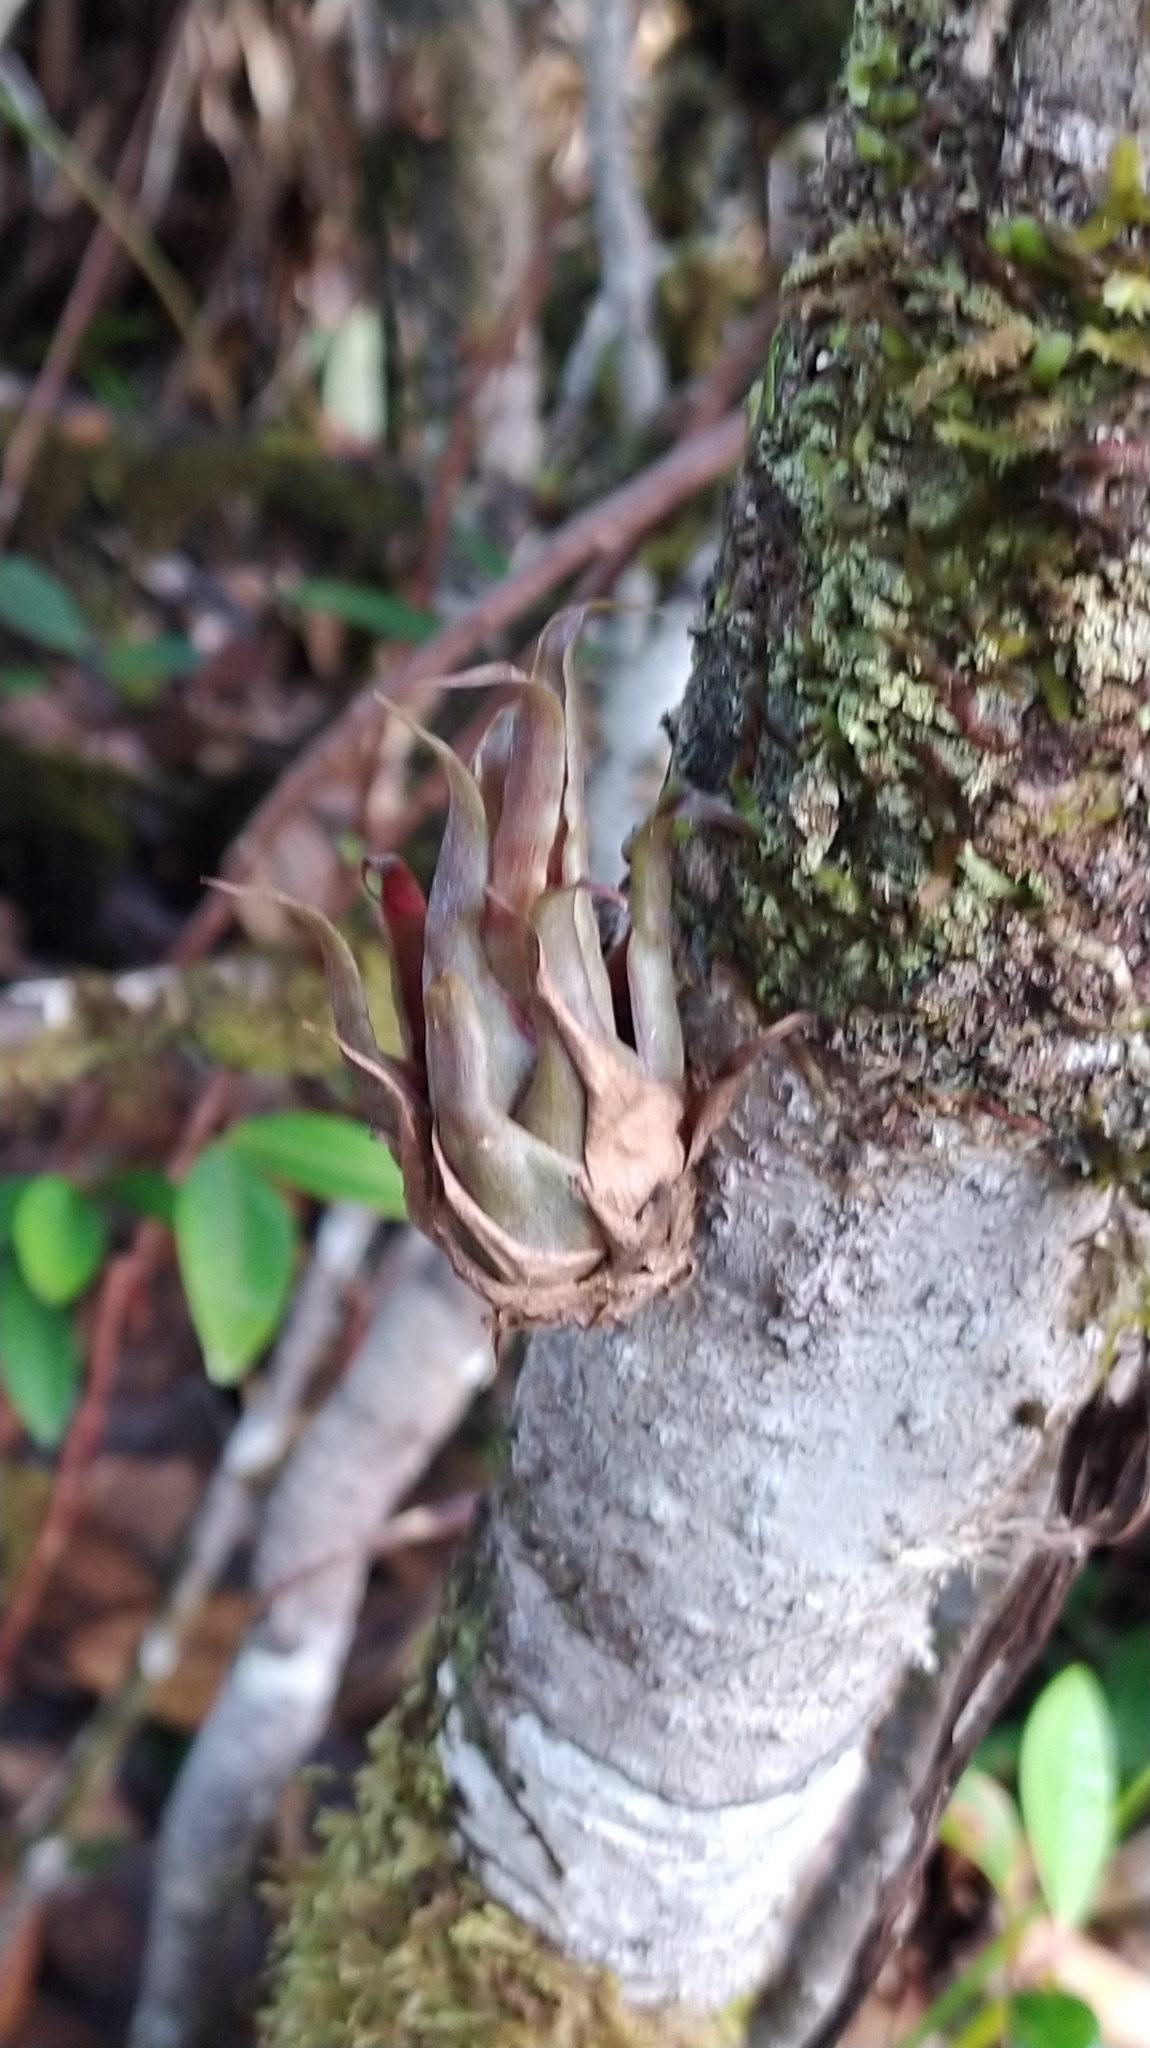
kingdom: Plantae
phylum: Tracheophyta
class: Liliopsida
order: Poales
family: Bromeliaceae
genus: Racinaea
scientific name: Racinaea spiculosa
